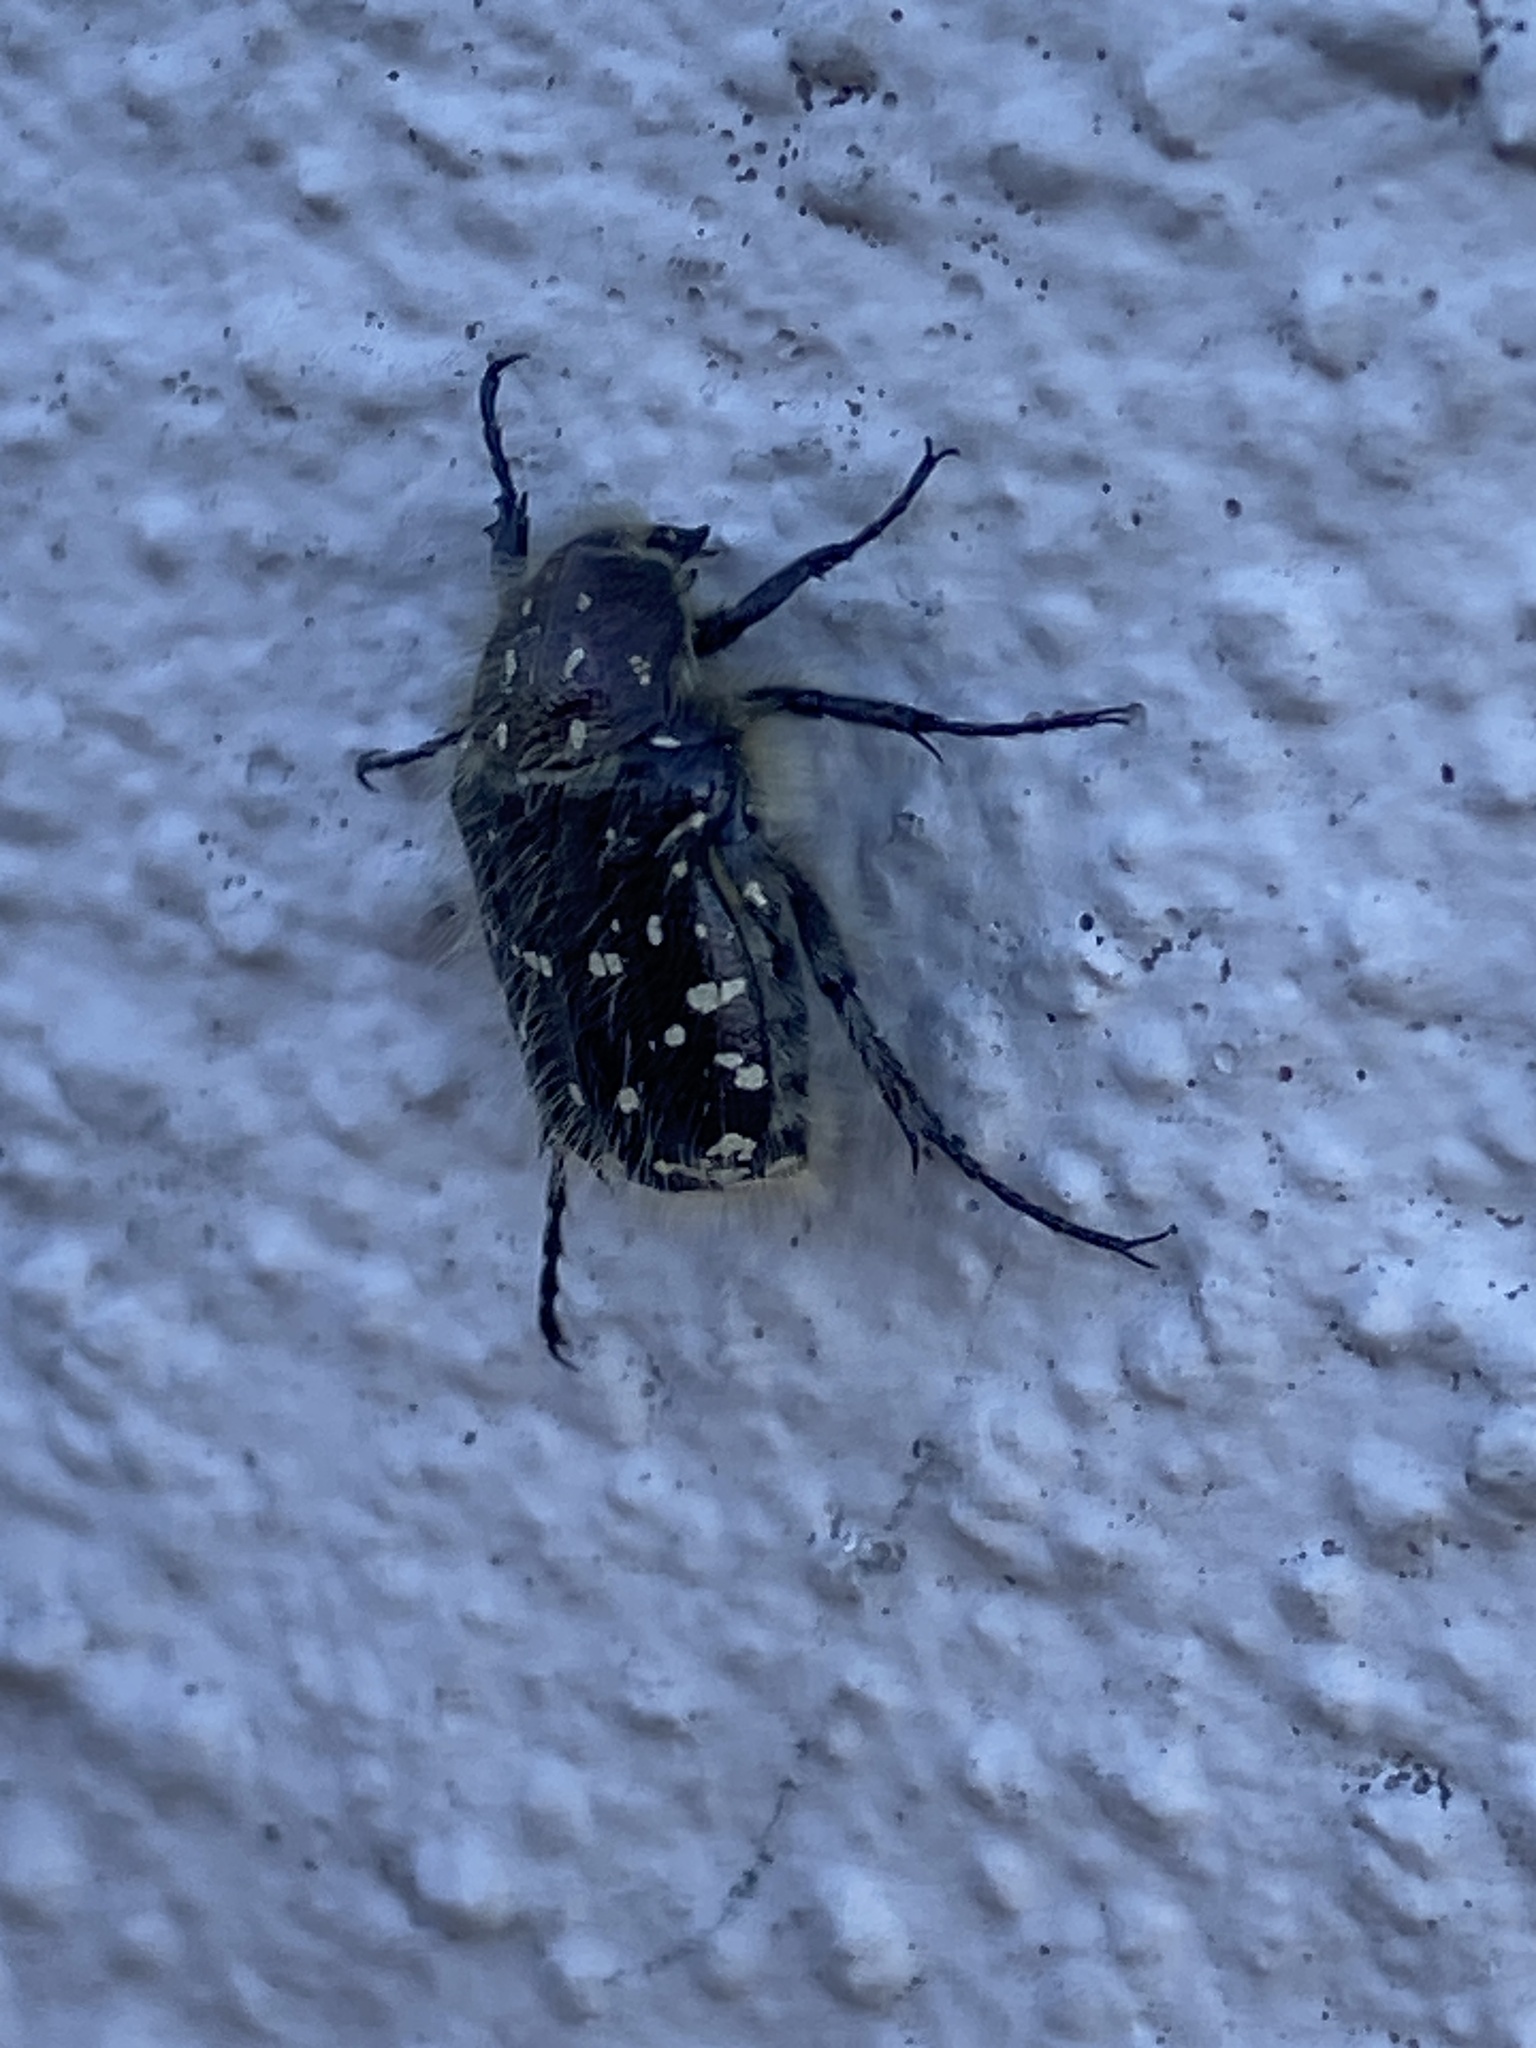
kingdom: Animalia
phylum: Arthropoda
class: Insecta
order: Coleoptera
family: Scarabaeidae
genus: Oxythyrea
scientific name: Oxythyrea funesta
